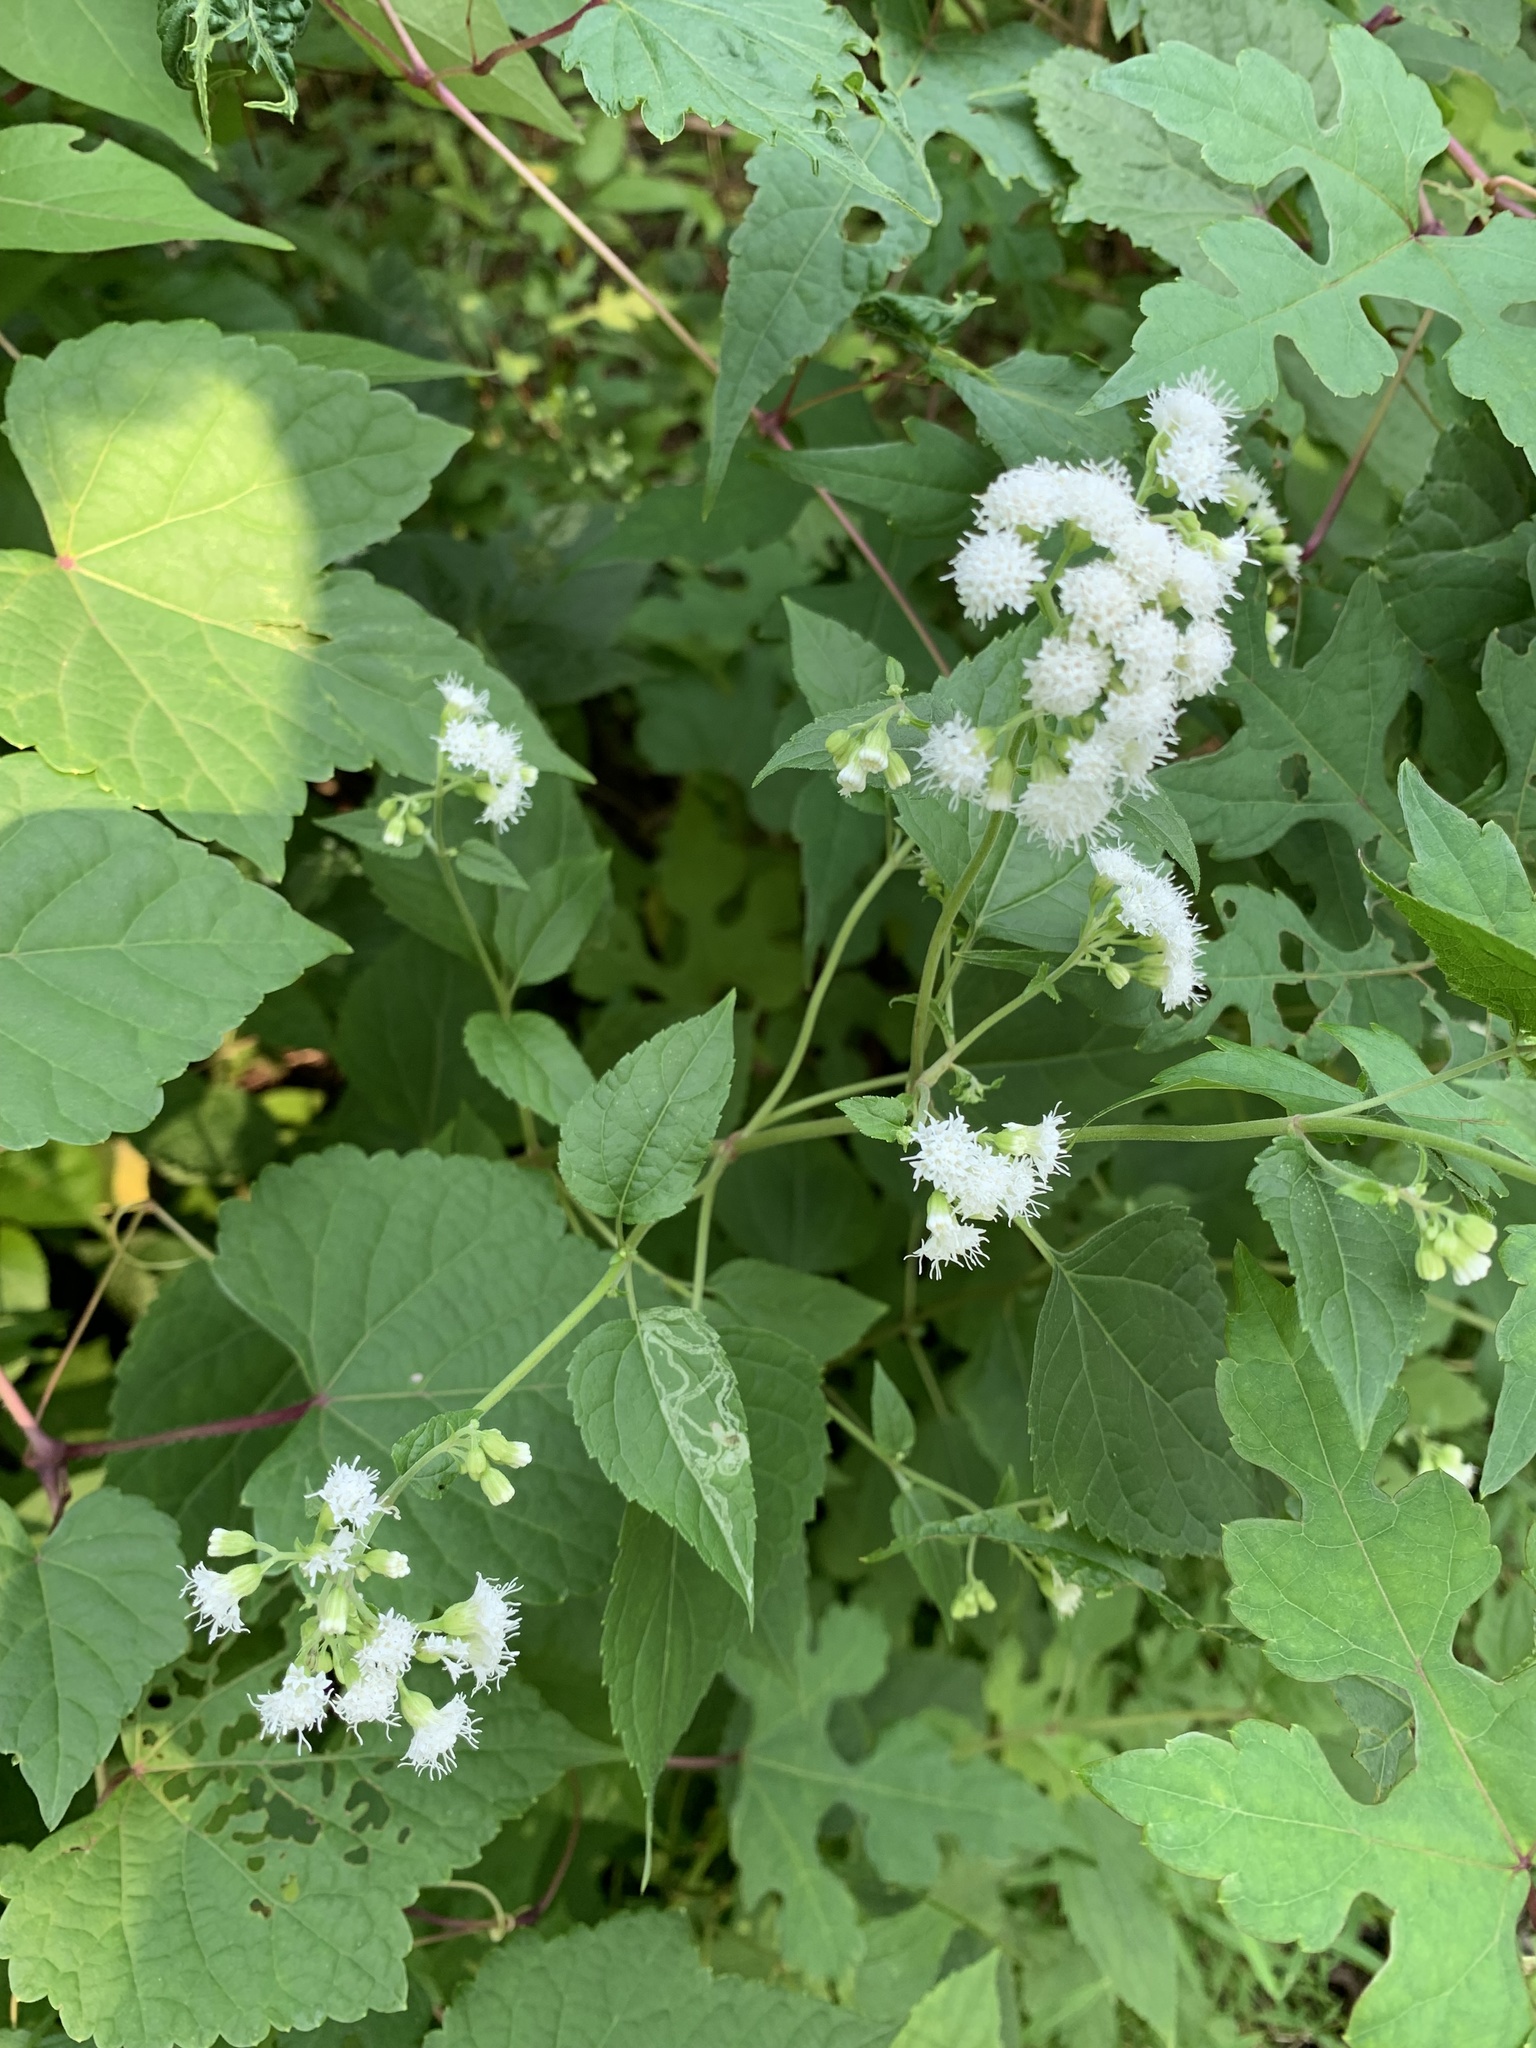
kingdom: Plantae
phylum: Tracheophyta
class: Magnoliopsida
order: Asterales
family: Asteraceae
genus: Ageratina
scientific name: Ageratina altissima
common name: White snakeroot
